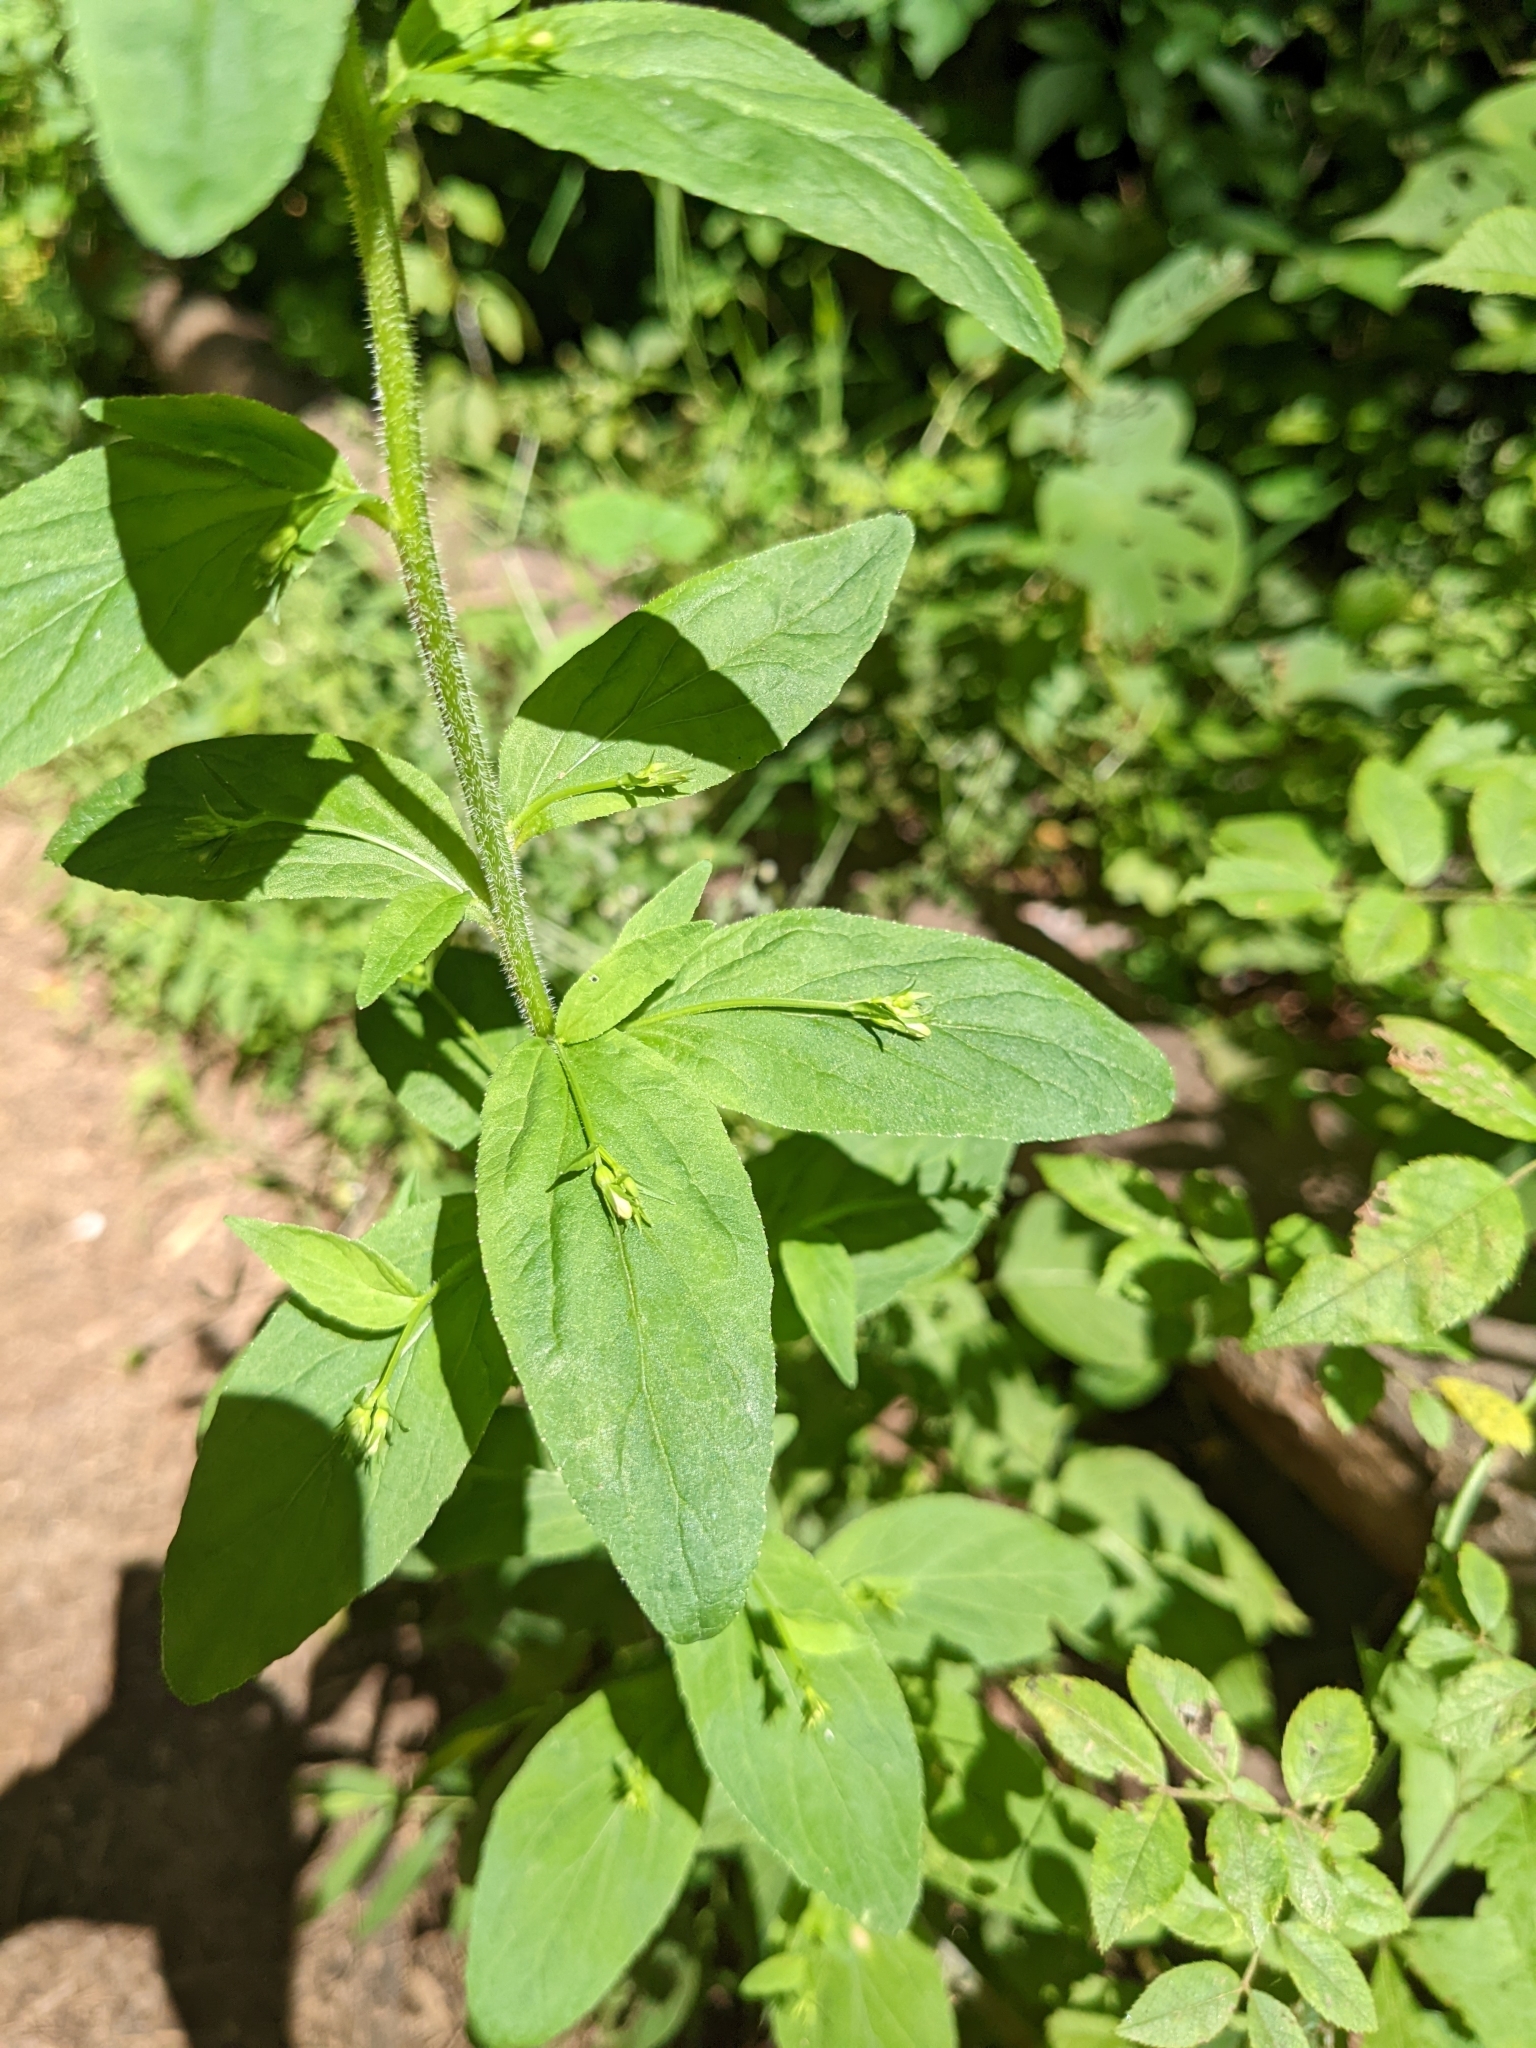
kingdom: Plantae
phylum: Tracheophyta
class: Magnoliopsida
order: Asterales
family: Campanulaceae
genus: Lobelia
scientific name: Lobelia inflata
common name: Indian tobacco
